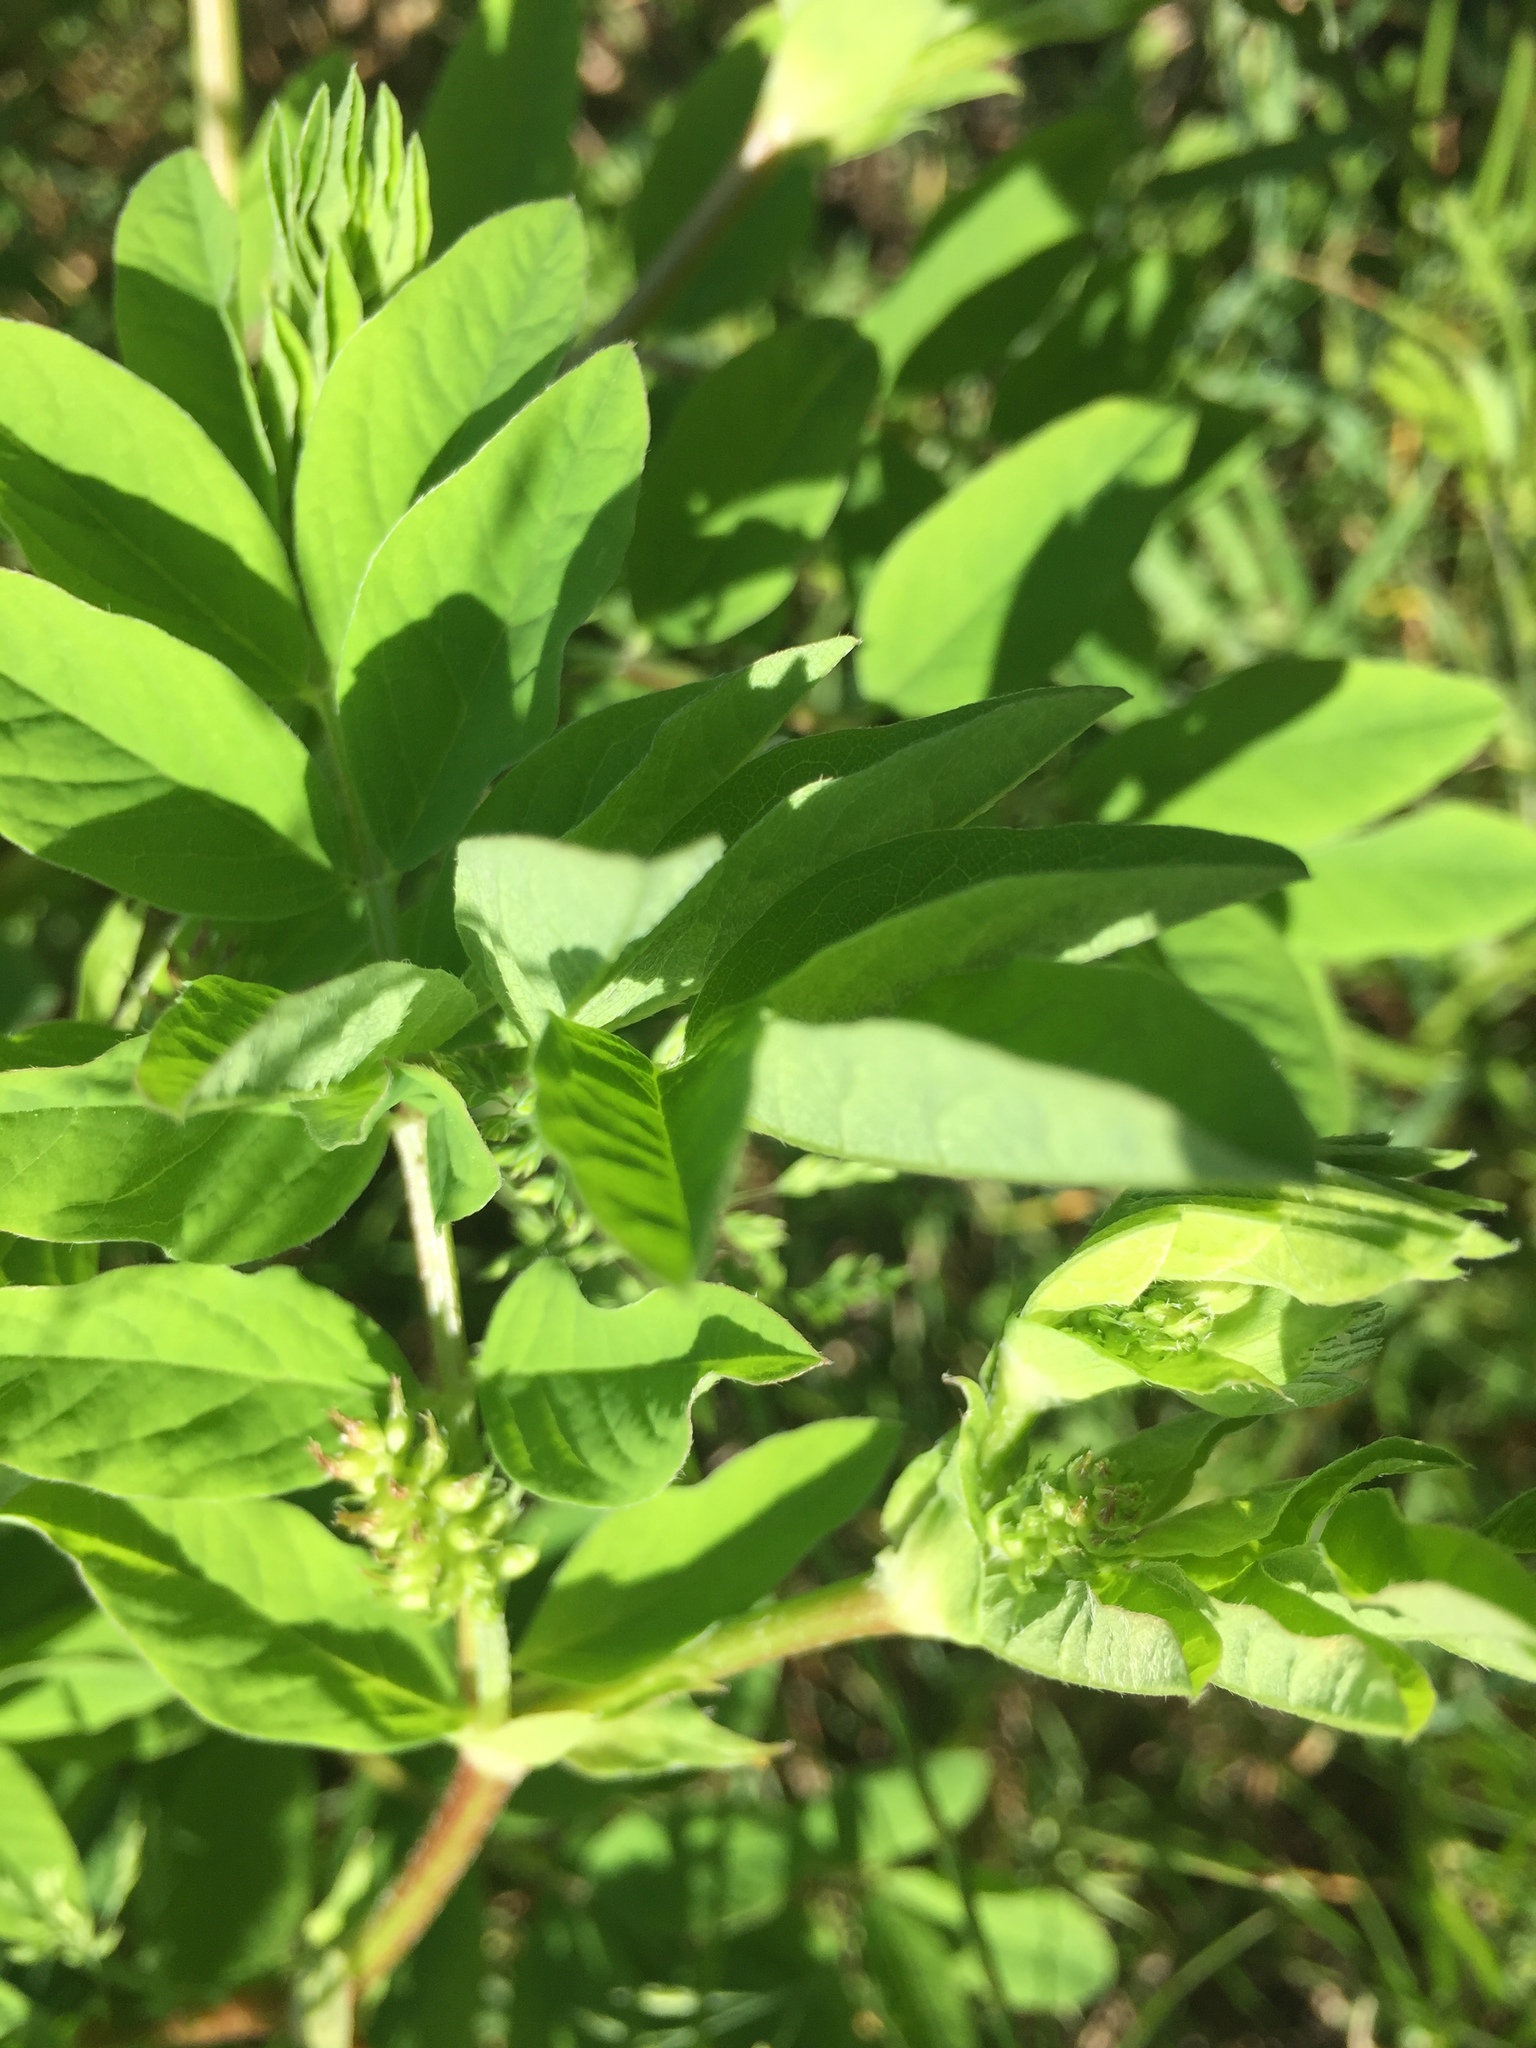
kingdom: Plantae
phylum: Tracheophyta
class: Magnoliopsida
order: Fabales
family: Fabaceae
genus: Astragalus
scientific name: Astragalus glycyphyllos
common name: Wild liquorice
